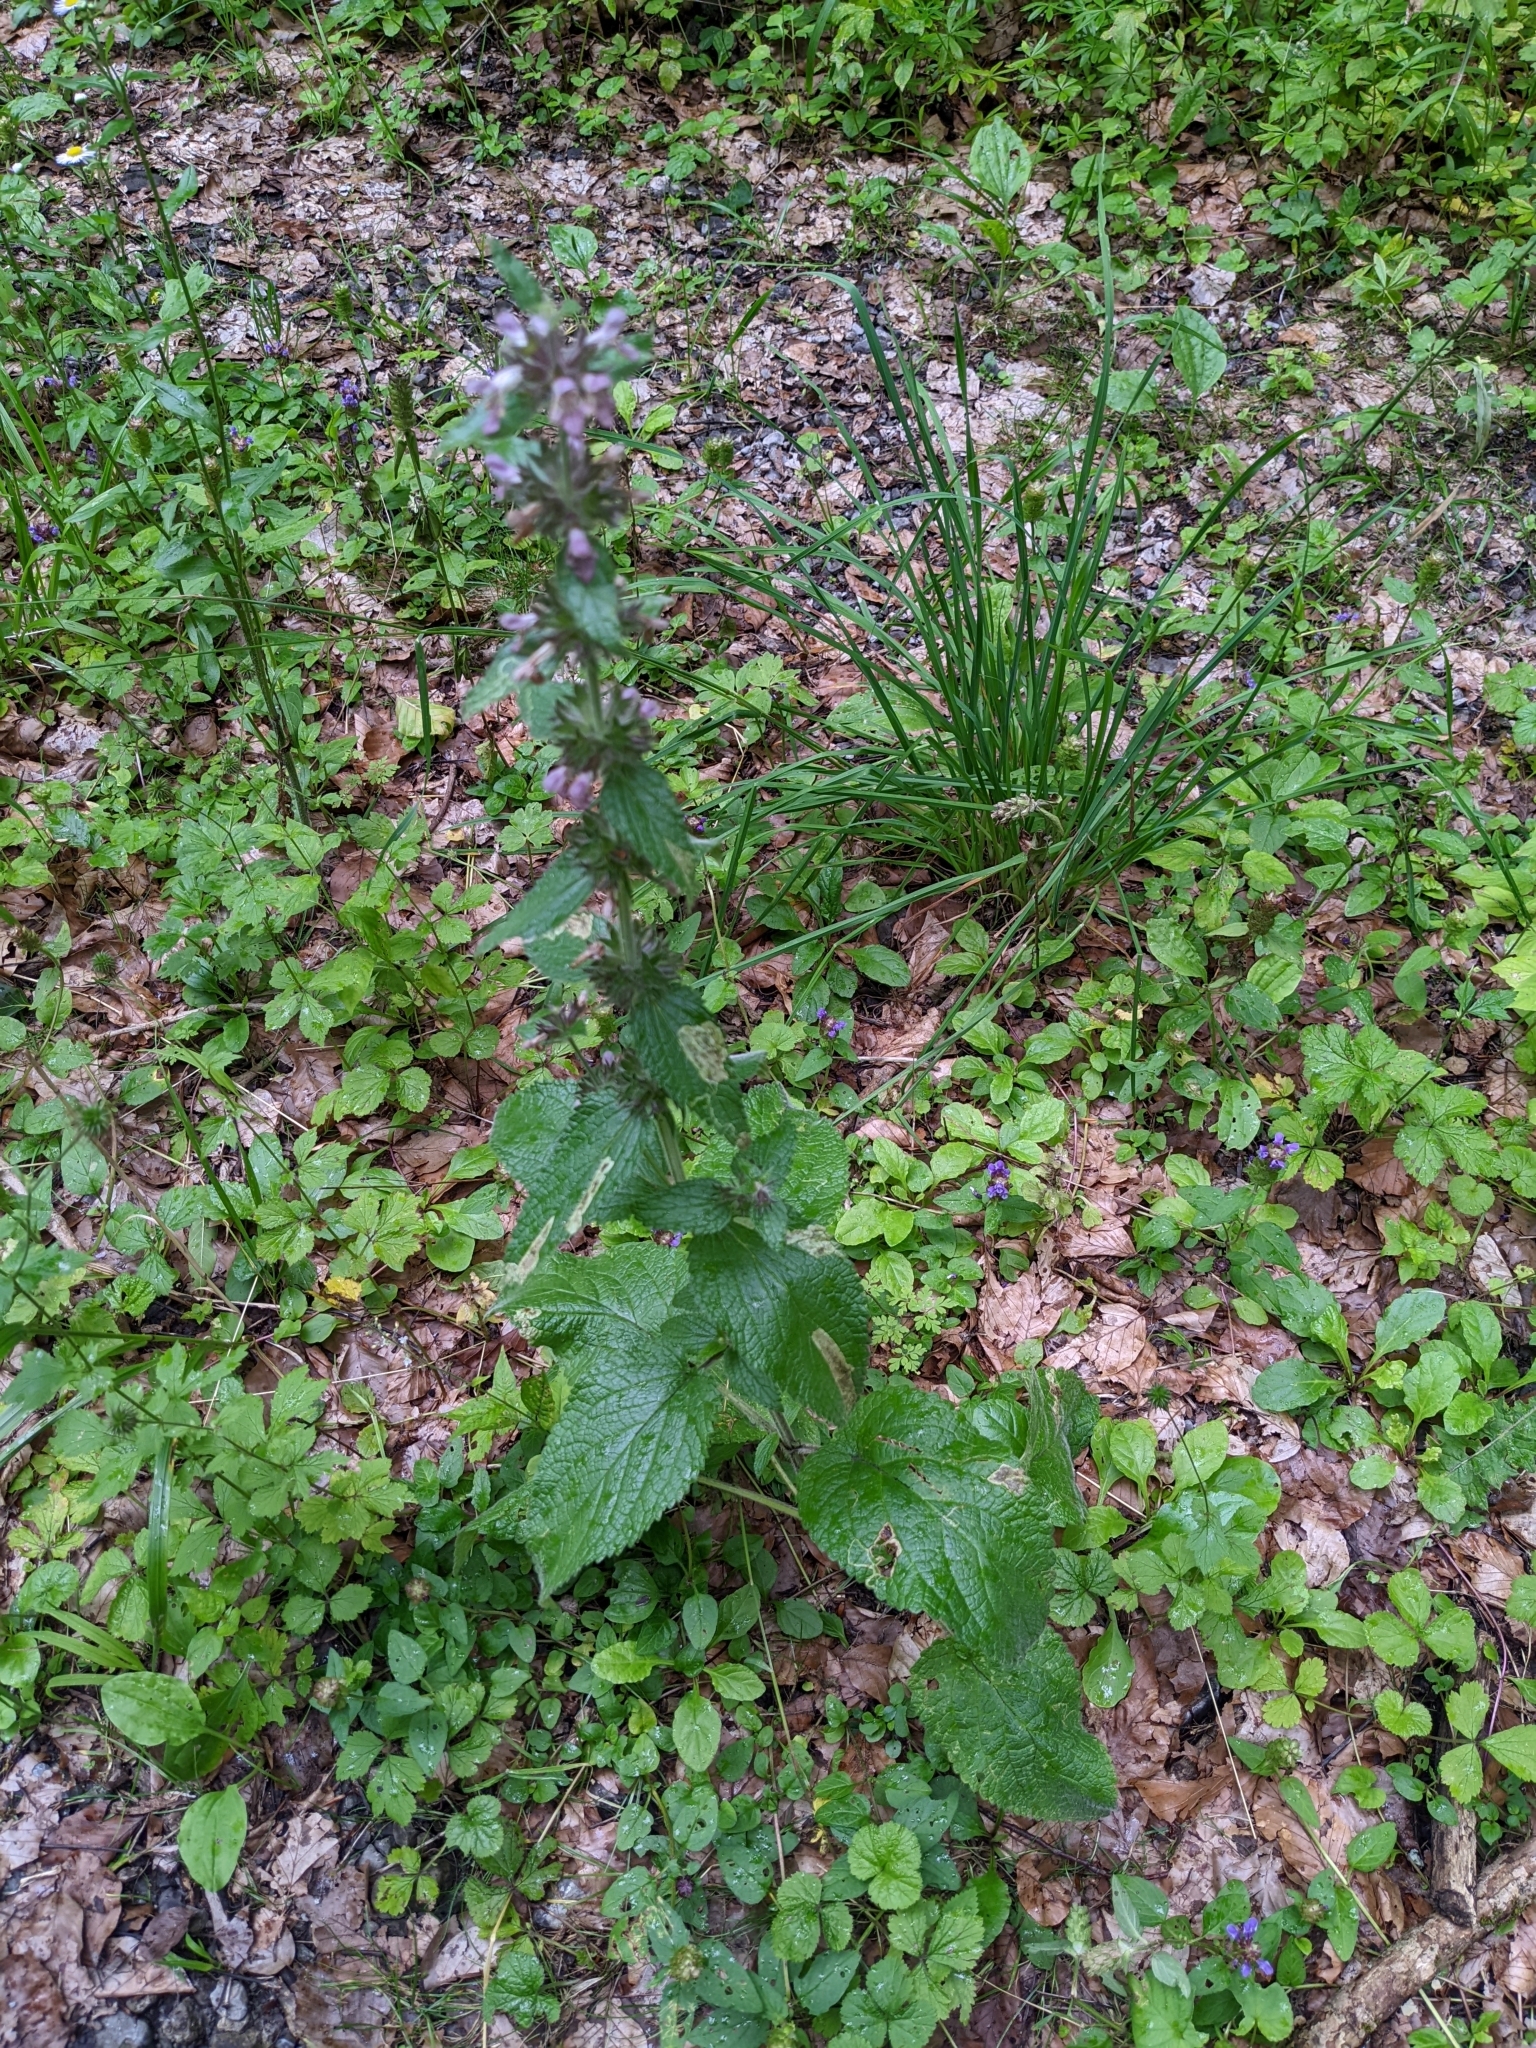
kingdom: Plantae
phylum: Tracheophyta
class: Magnoliopsida
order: Lamiales
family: Lamiaceae
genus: Stachys
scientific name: Stachys alpina
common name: Limestone woundwort
